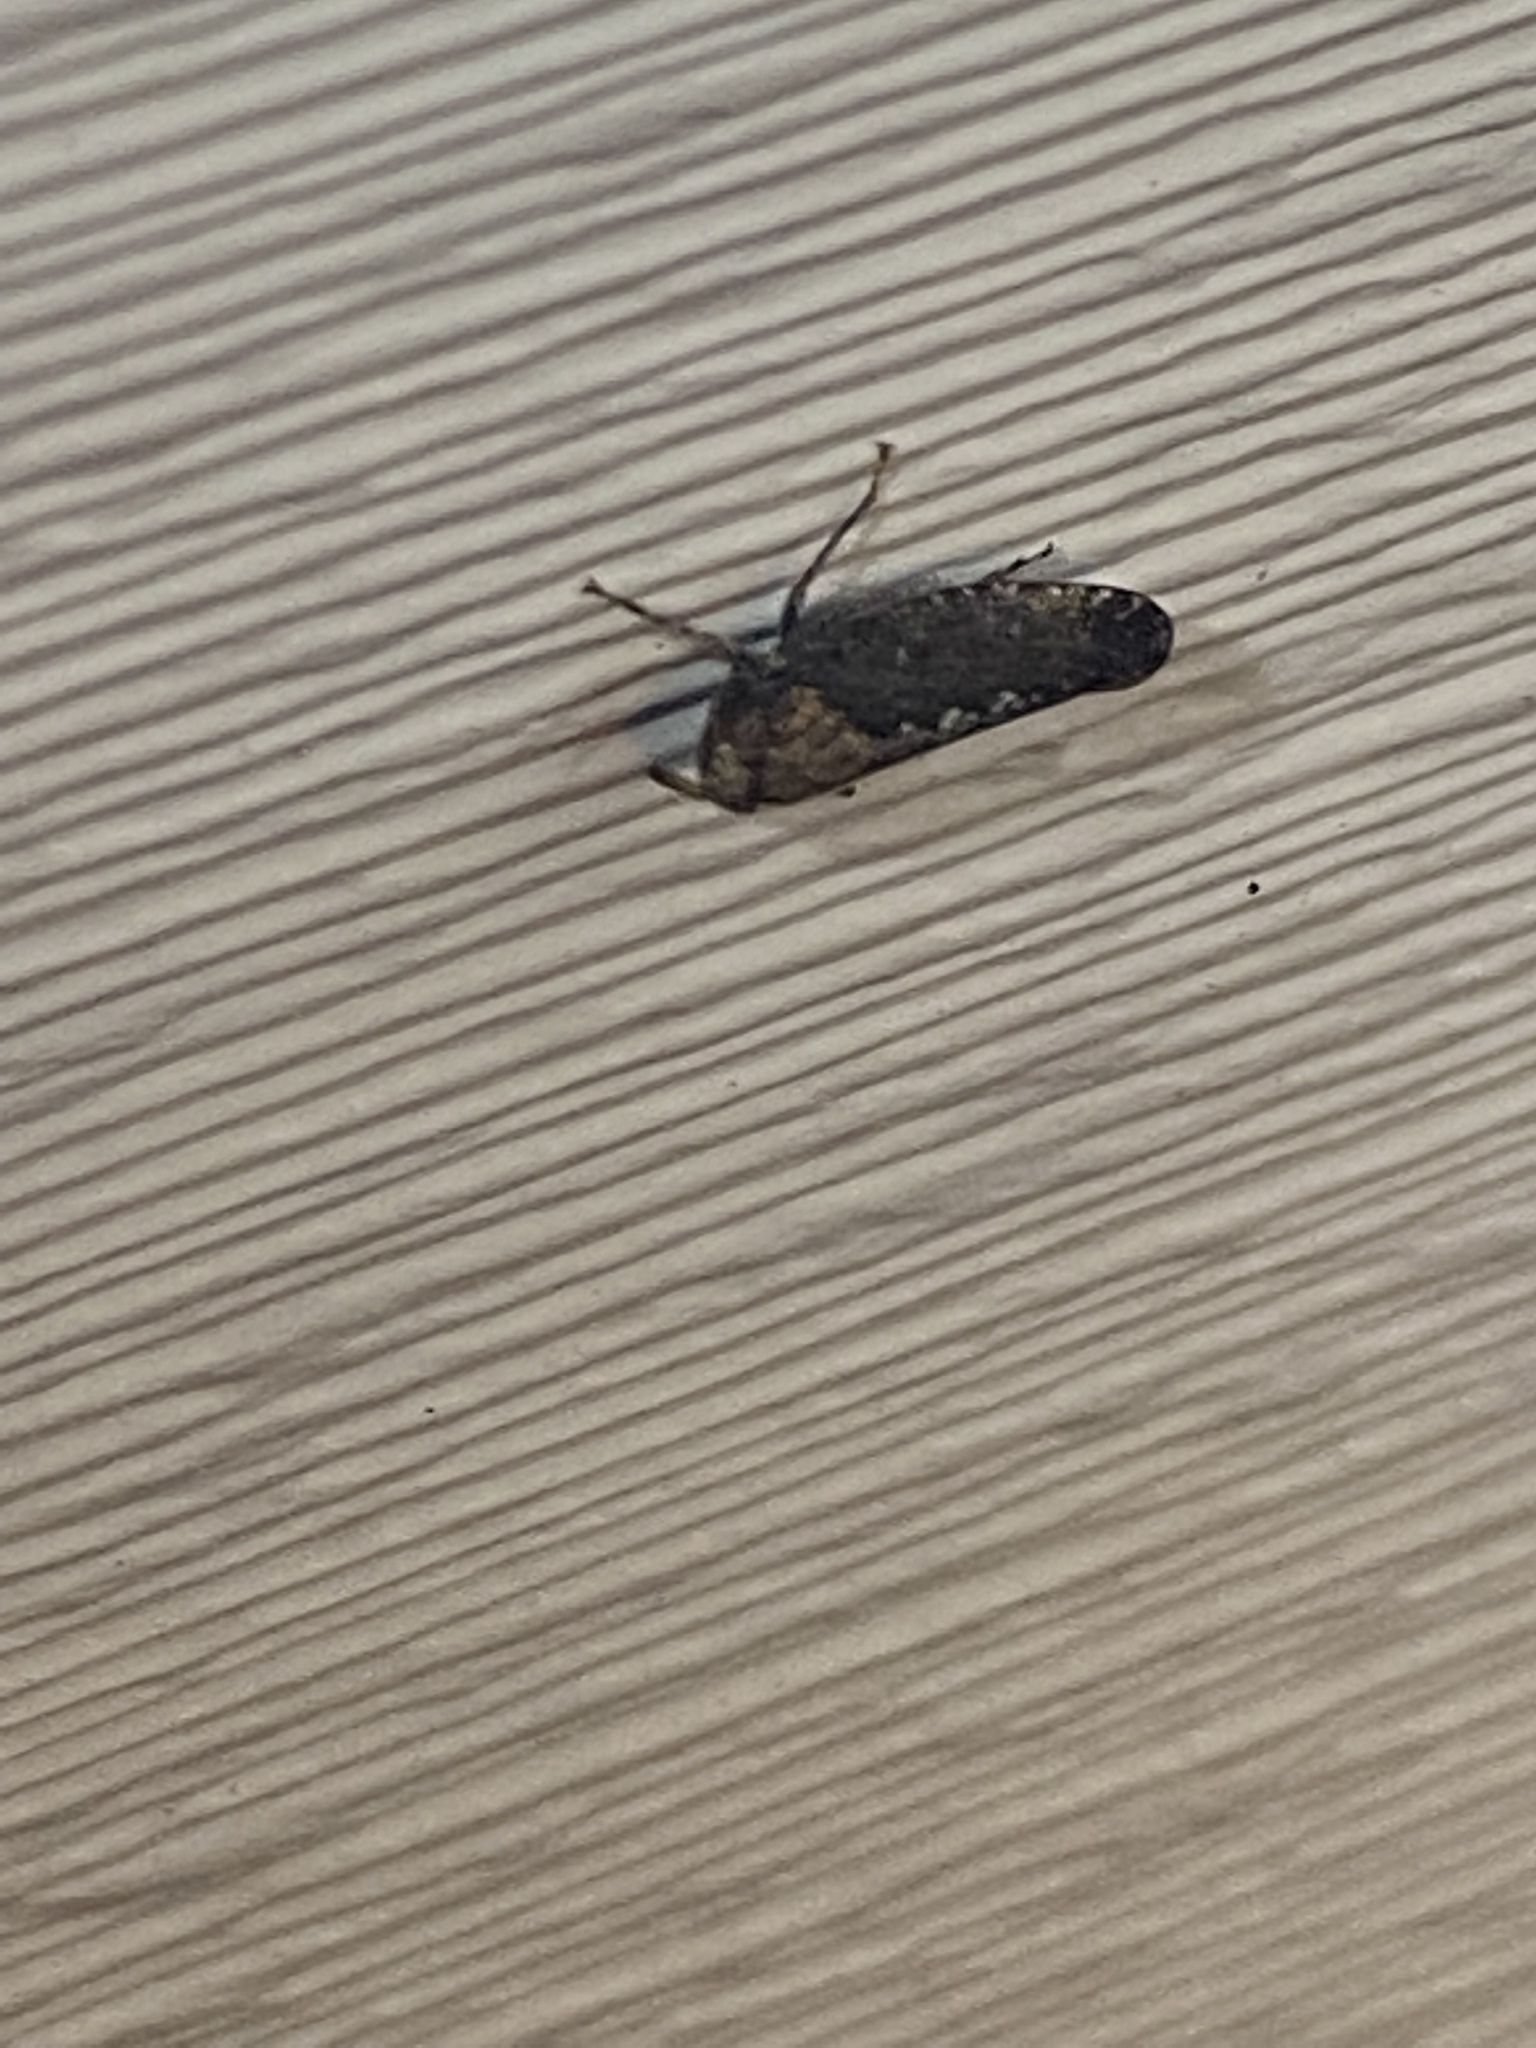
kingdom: Animalia
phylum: Arthropoda
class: Insecta
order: Hemiptera
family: Cicadellidae
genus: Excultanus
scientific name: Excultanus excultus
